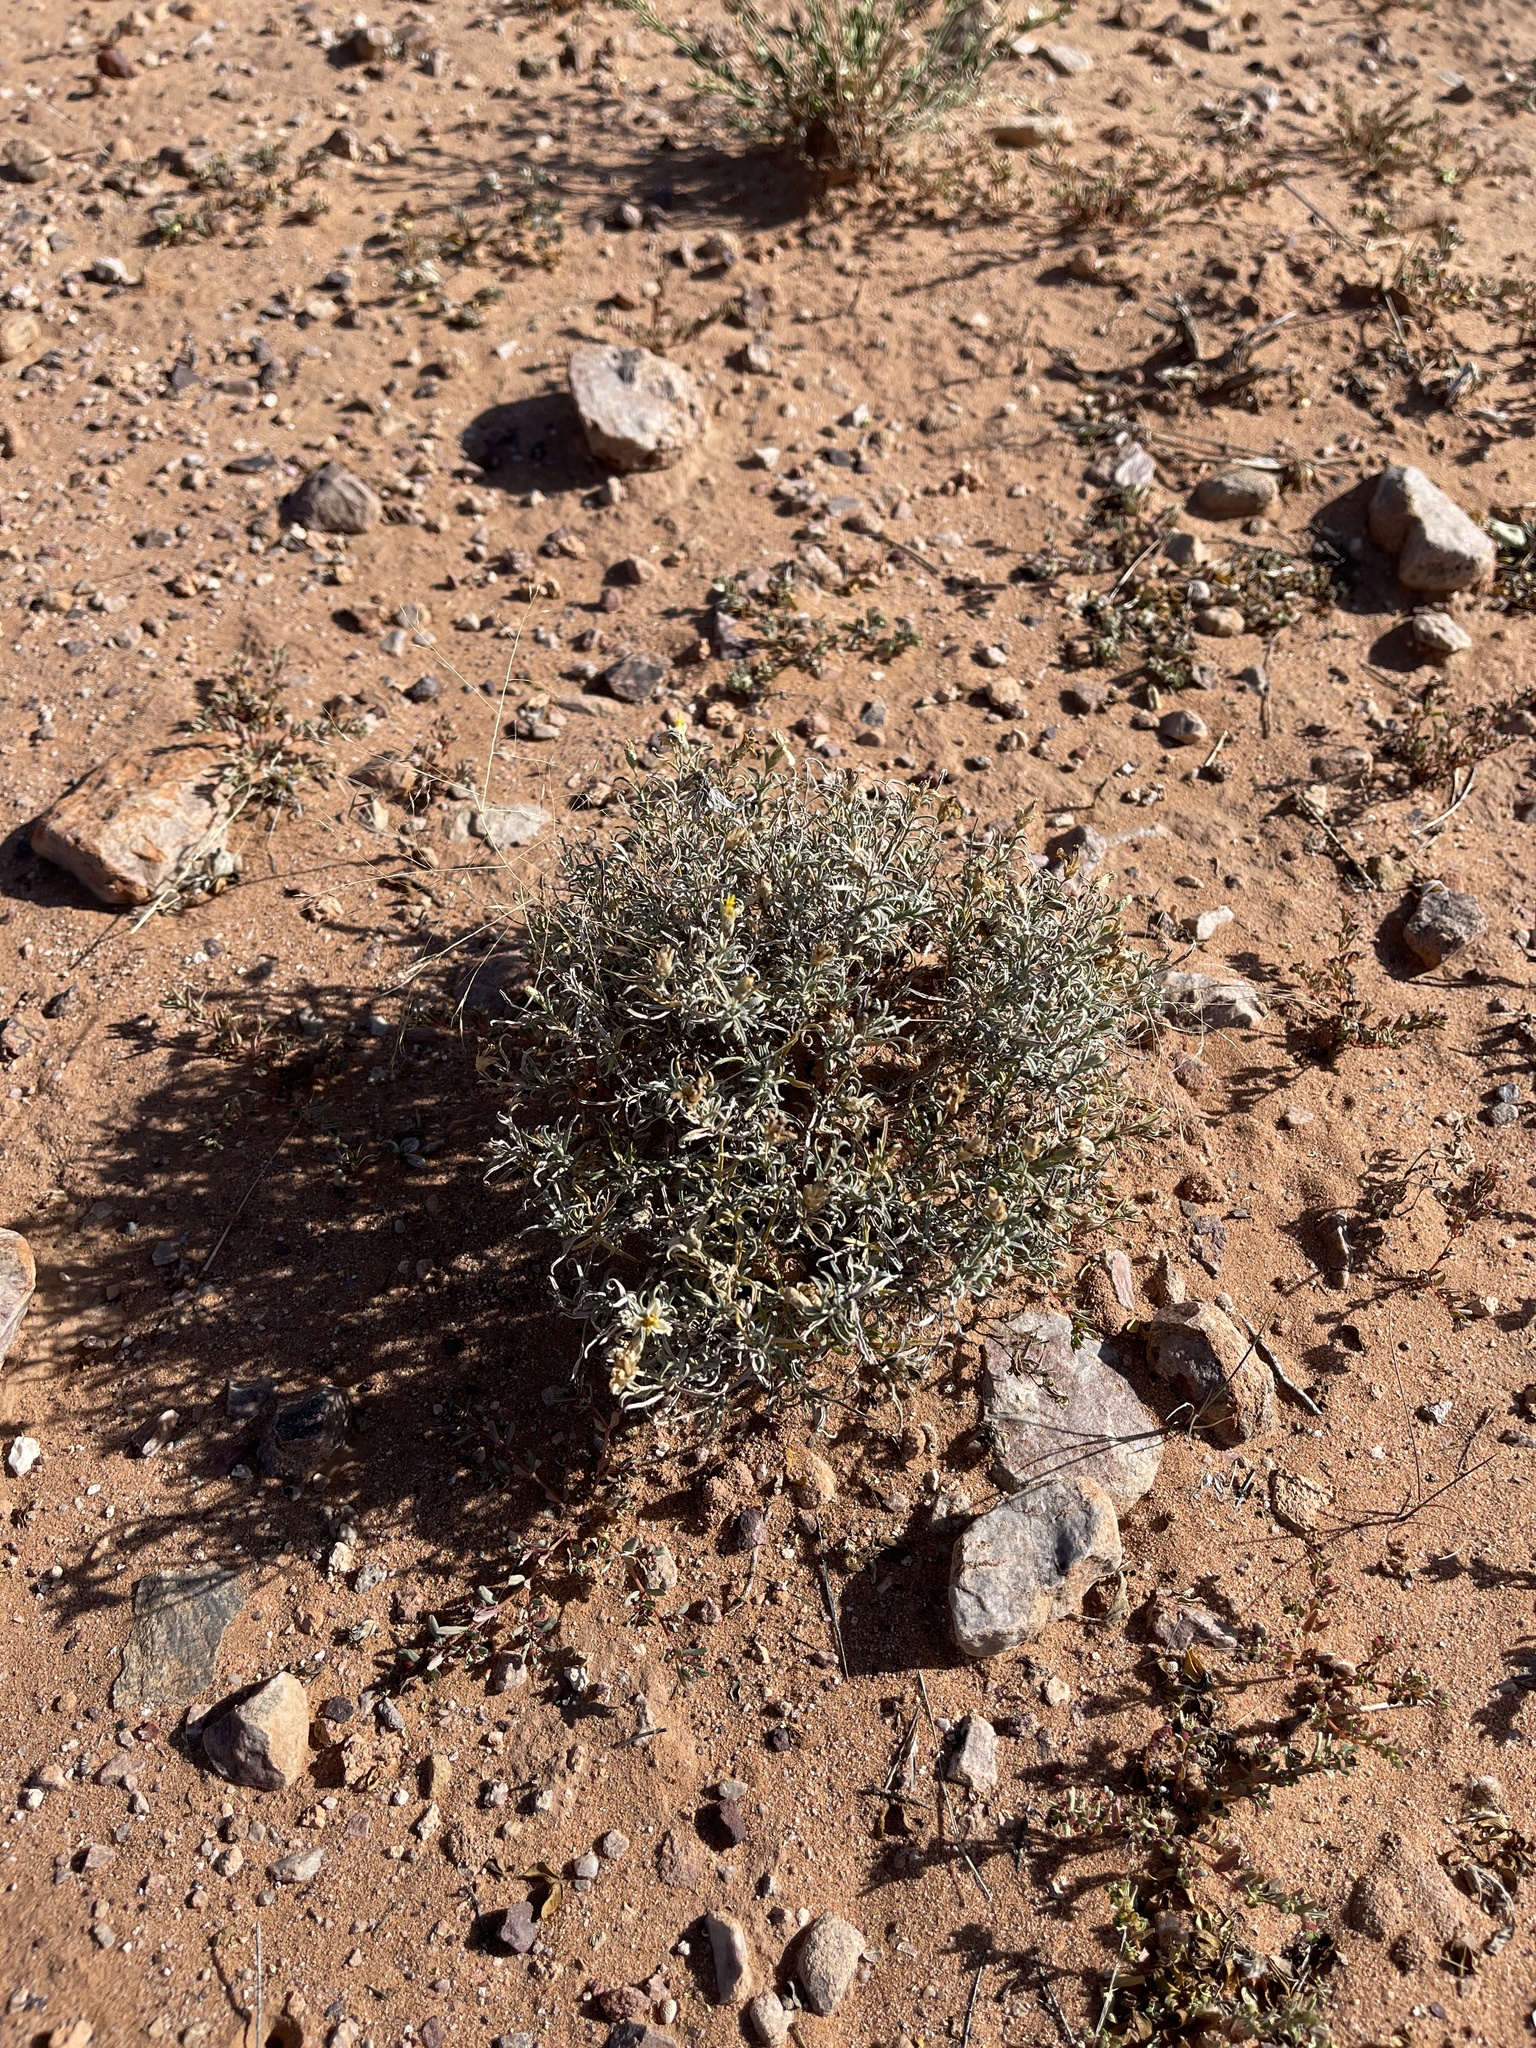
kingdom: Plantae
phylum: Tracheophyta
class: Magnoliopsida
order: Caryophyllales
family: Cactaceae
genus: Cylindropuntia
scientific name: Cylindropuntia leptocaulis
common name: Christmas cactus
